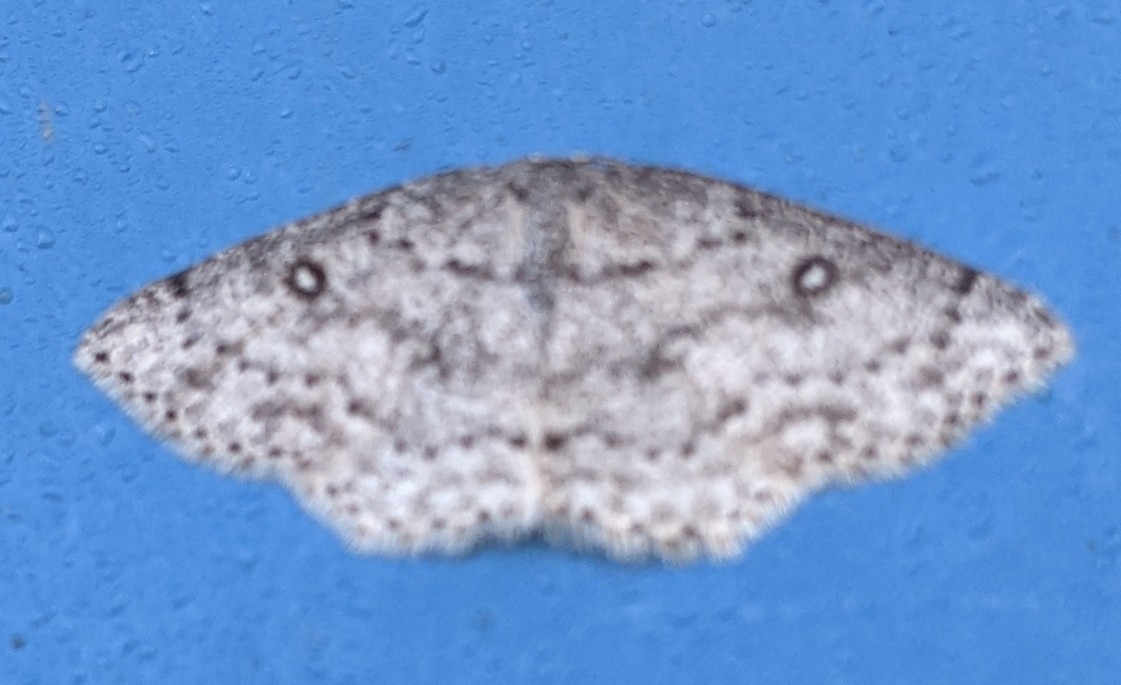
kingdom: Animalia
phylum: Arthropoda
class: Insecta
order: Lepidoptera
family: Geometridae
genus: Cyclophora
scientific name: Cyclophora pendulinaria
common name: Sweet fern geometer
